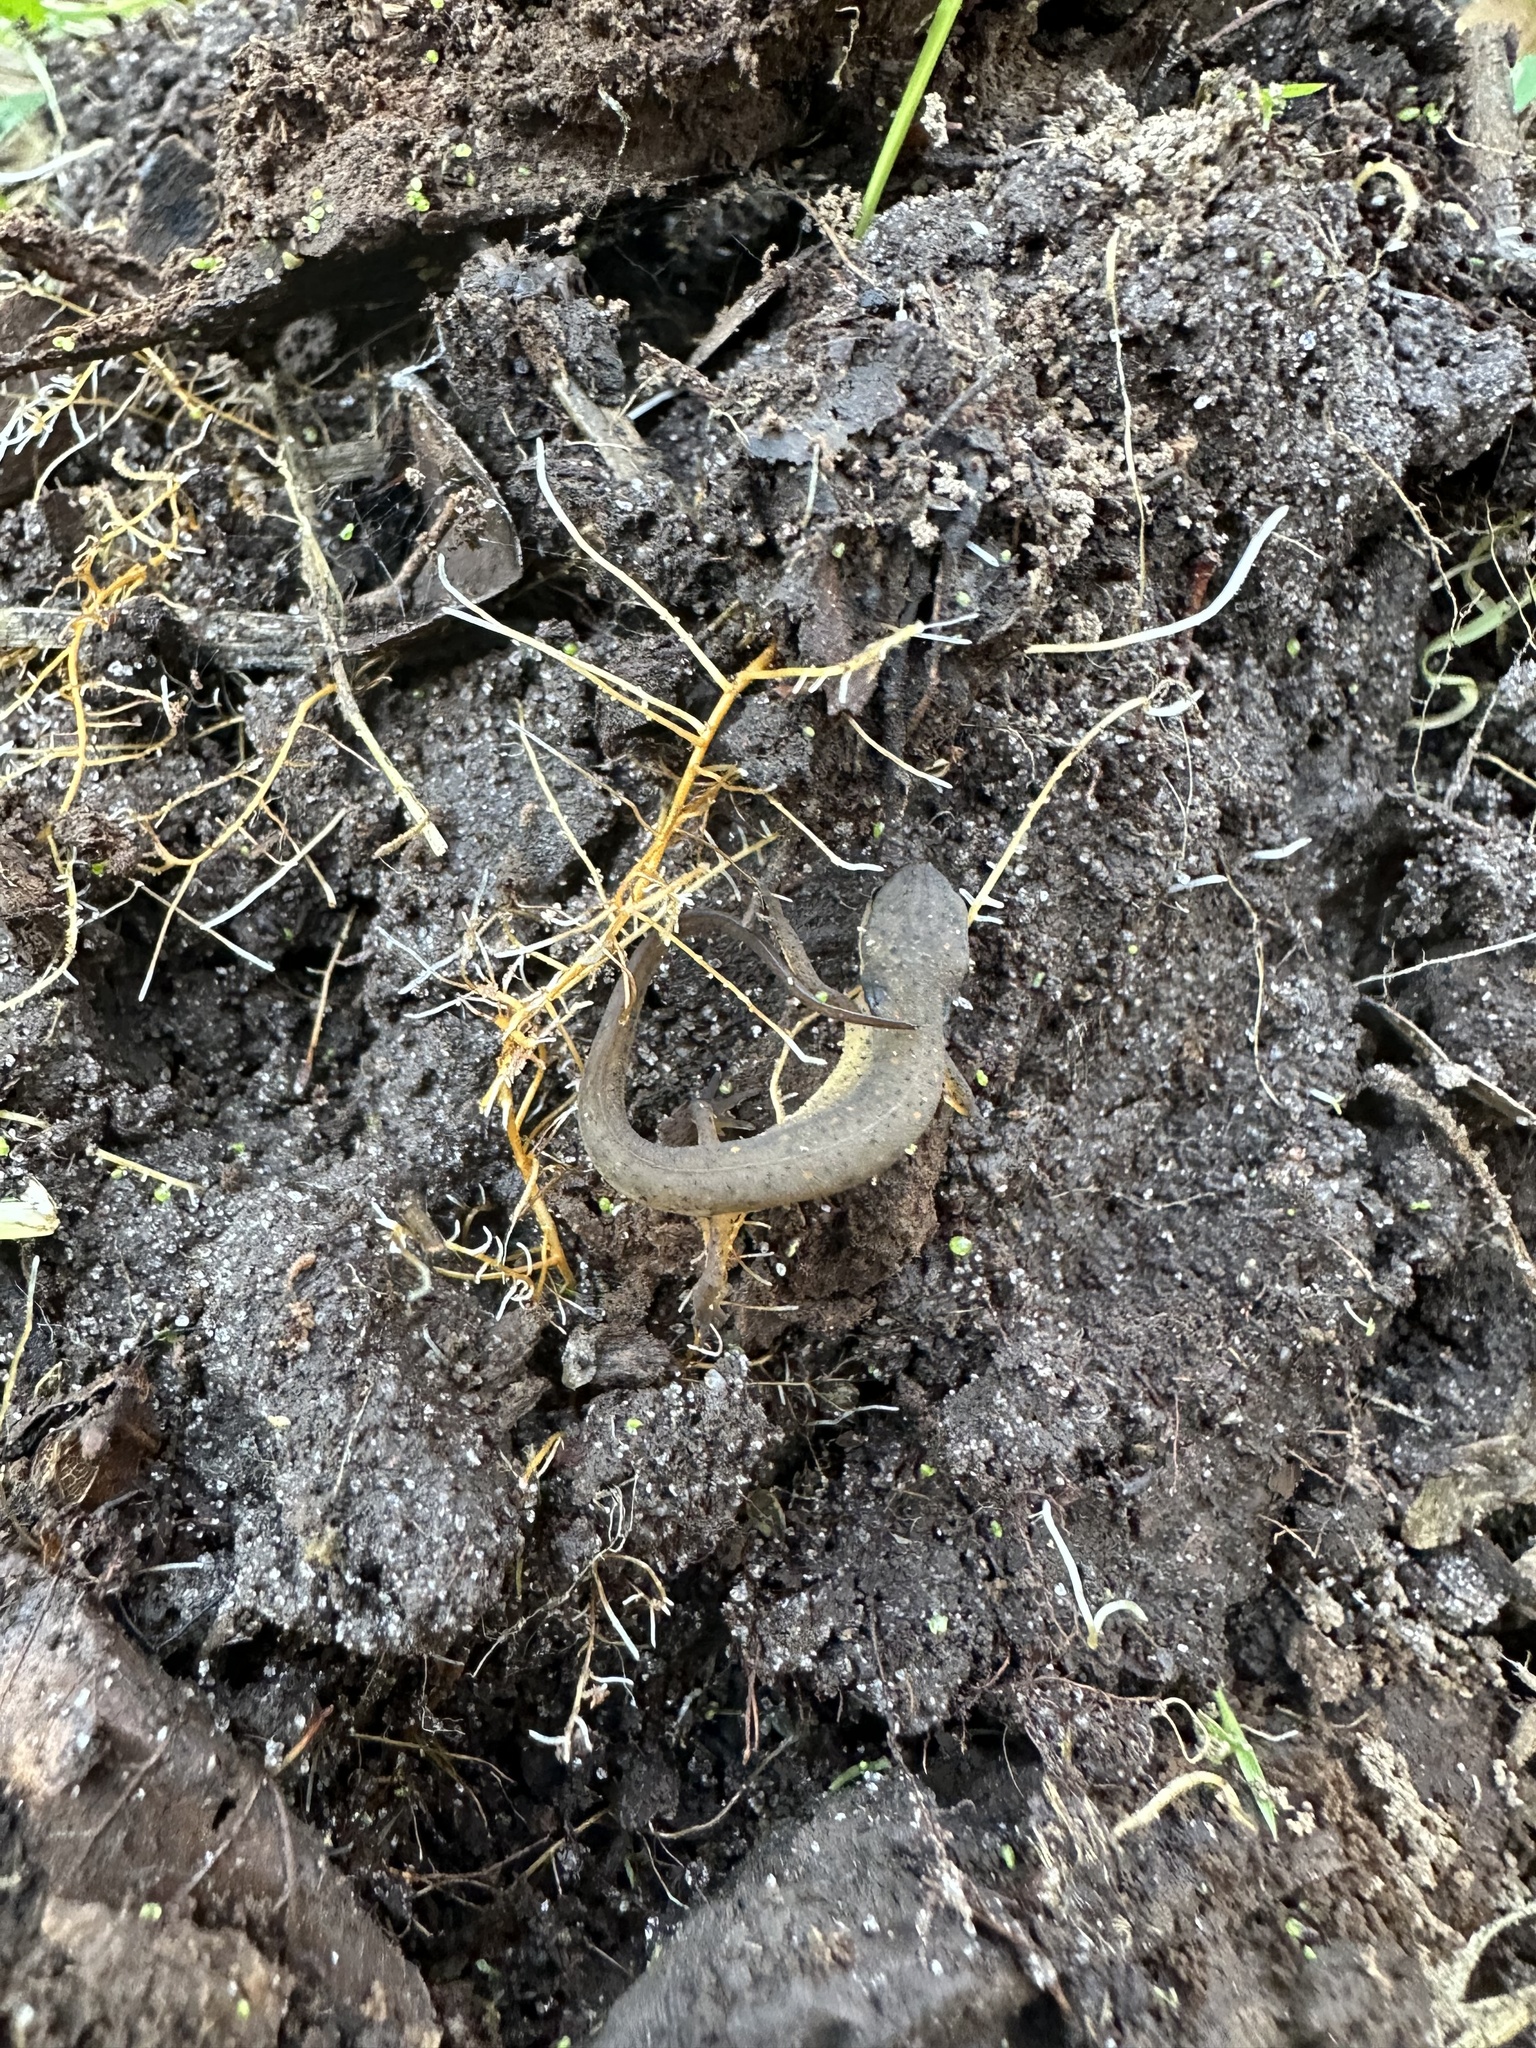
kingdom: Animalia
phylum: Chordata
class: Amphibia
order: Caudata
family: Salamandridae
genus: Notophthalmus
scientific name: Notophthalmus viridescens
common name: Eastern newt
